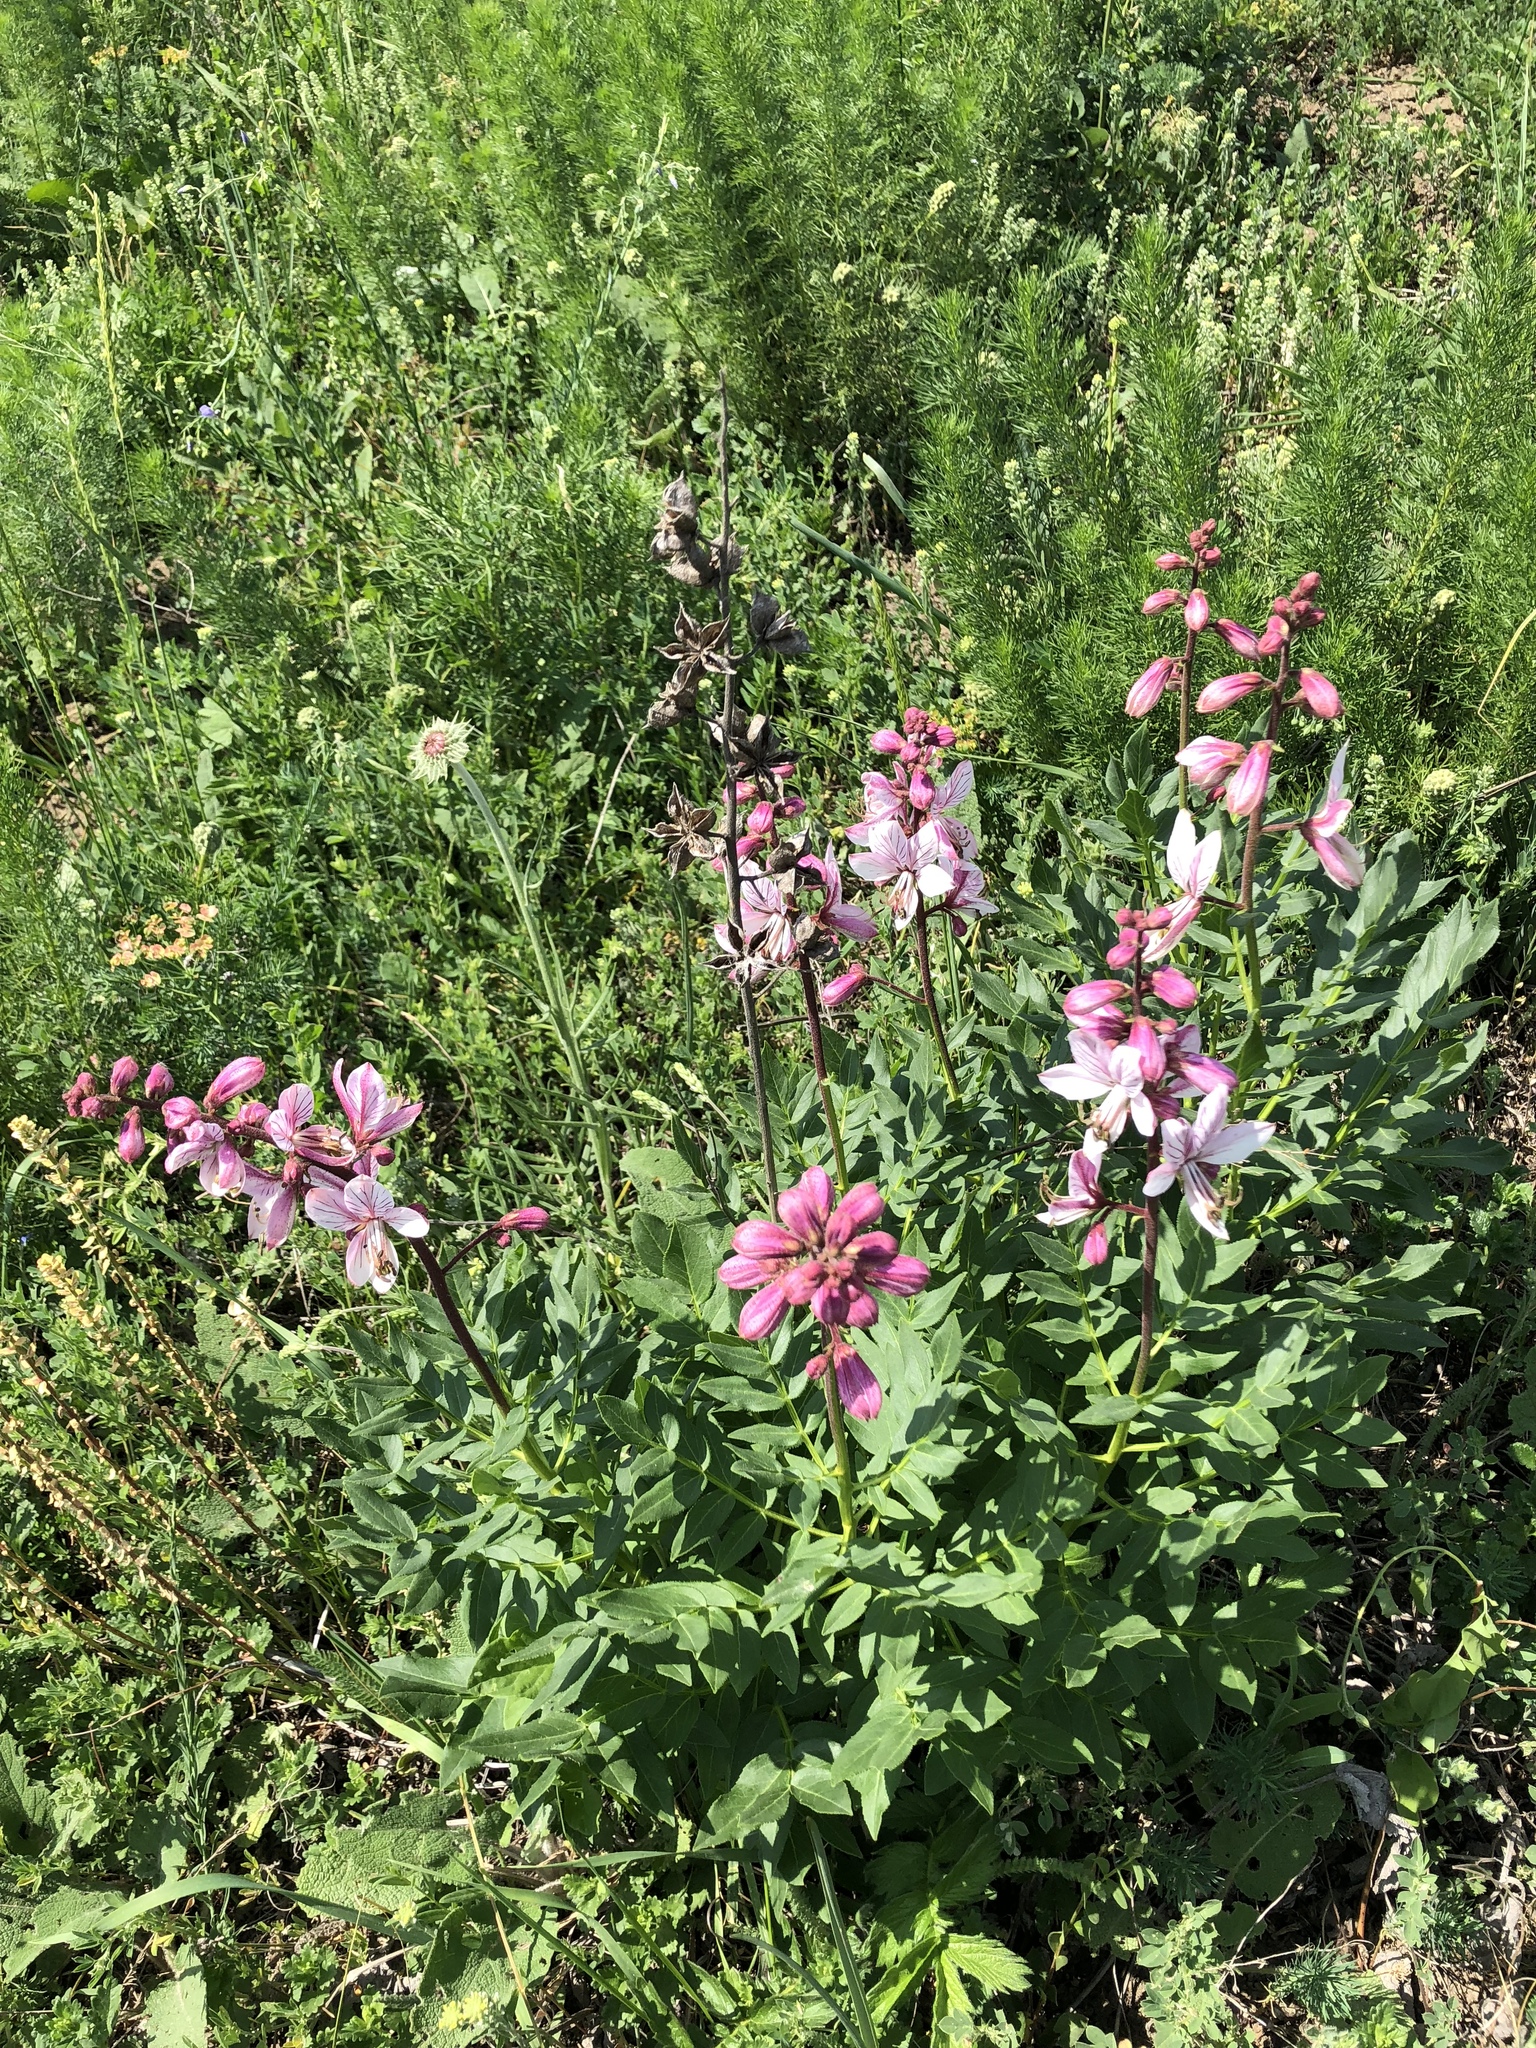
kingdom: Plantae
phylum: Tracheophyta
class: Magnoliopsida
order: Sapindales
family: Rutaceae
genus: Dictamnus
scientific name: Dictamnus albus
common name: Gasplant
